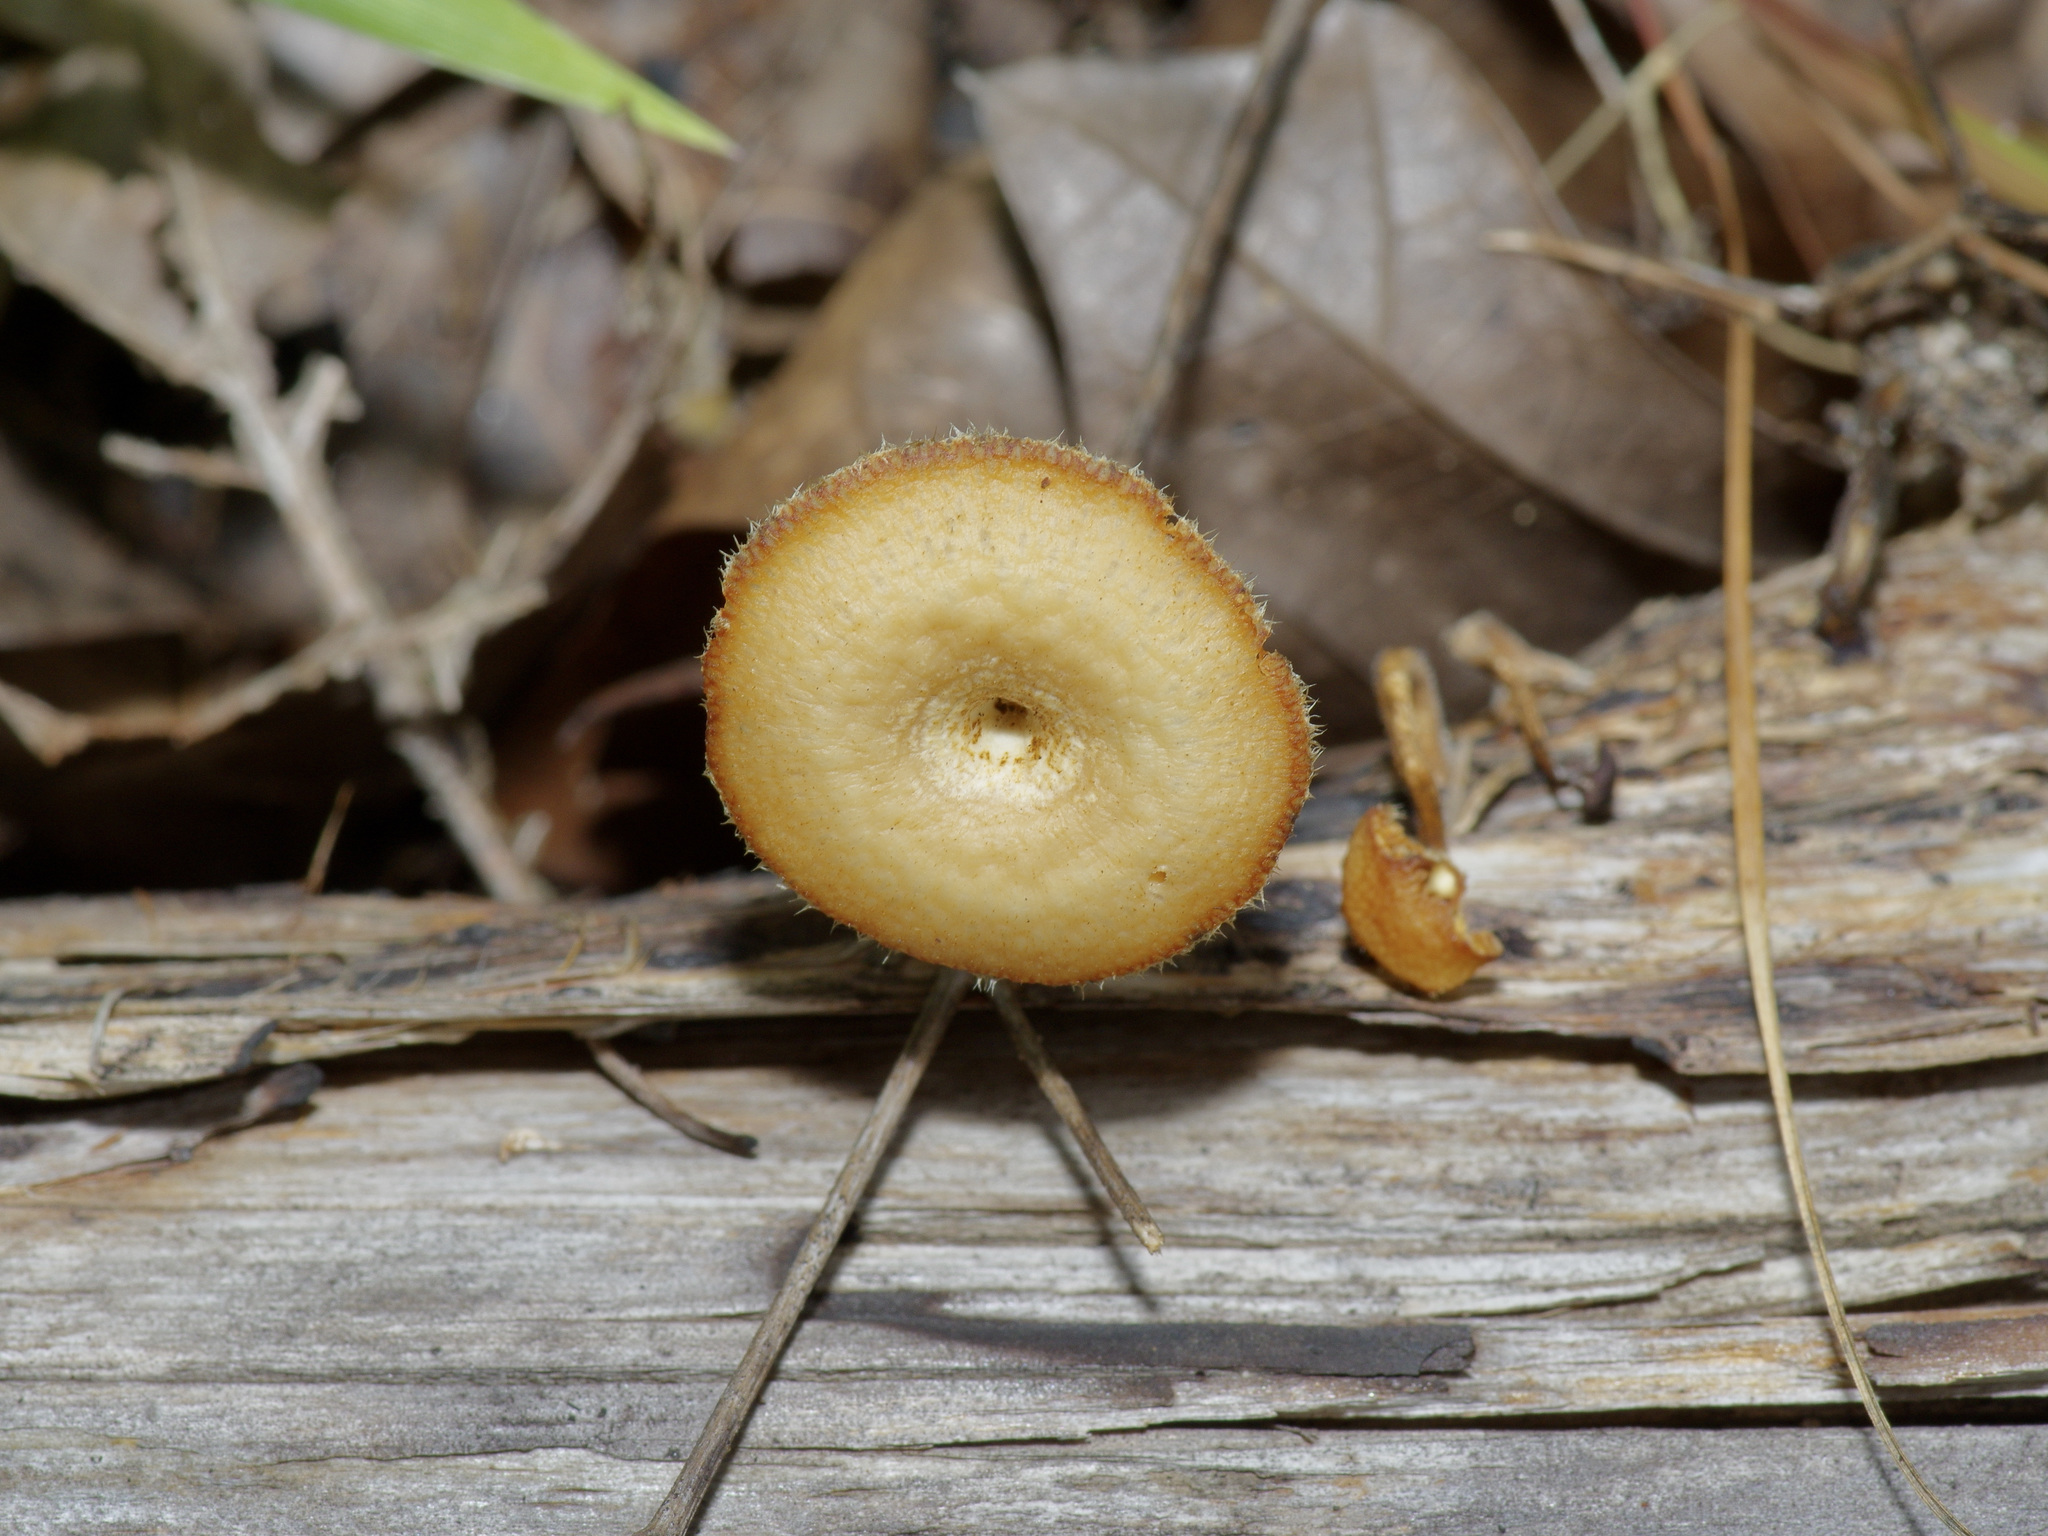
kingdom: Fungi
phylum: Basidiomycota
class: Agaricomycetes
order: Polyporales
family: Polyporaceae
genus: Lentinus
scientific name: Lentinus arcularius
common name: Spring polypore
